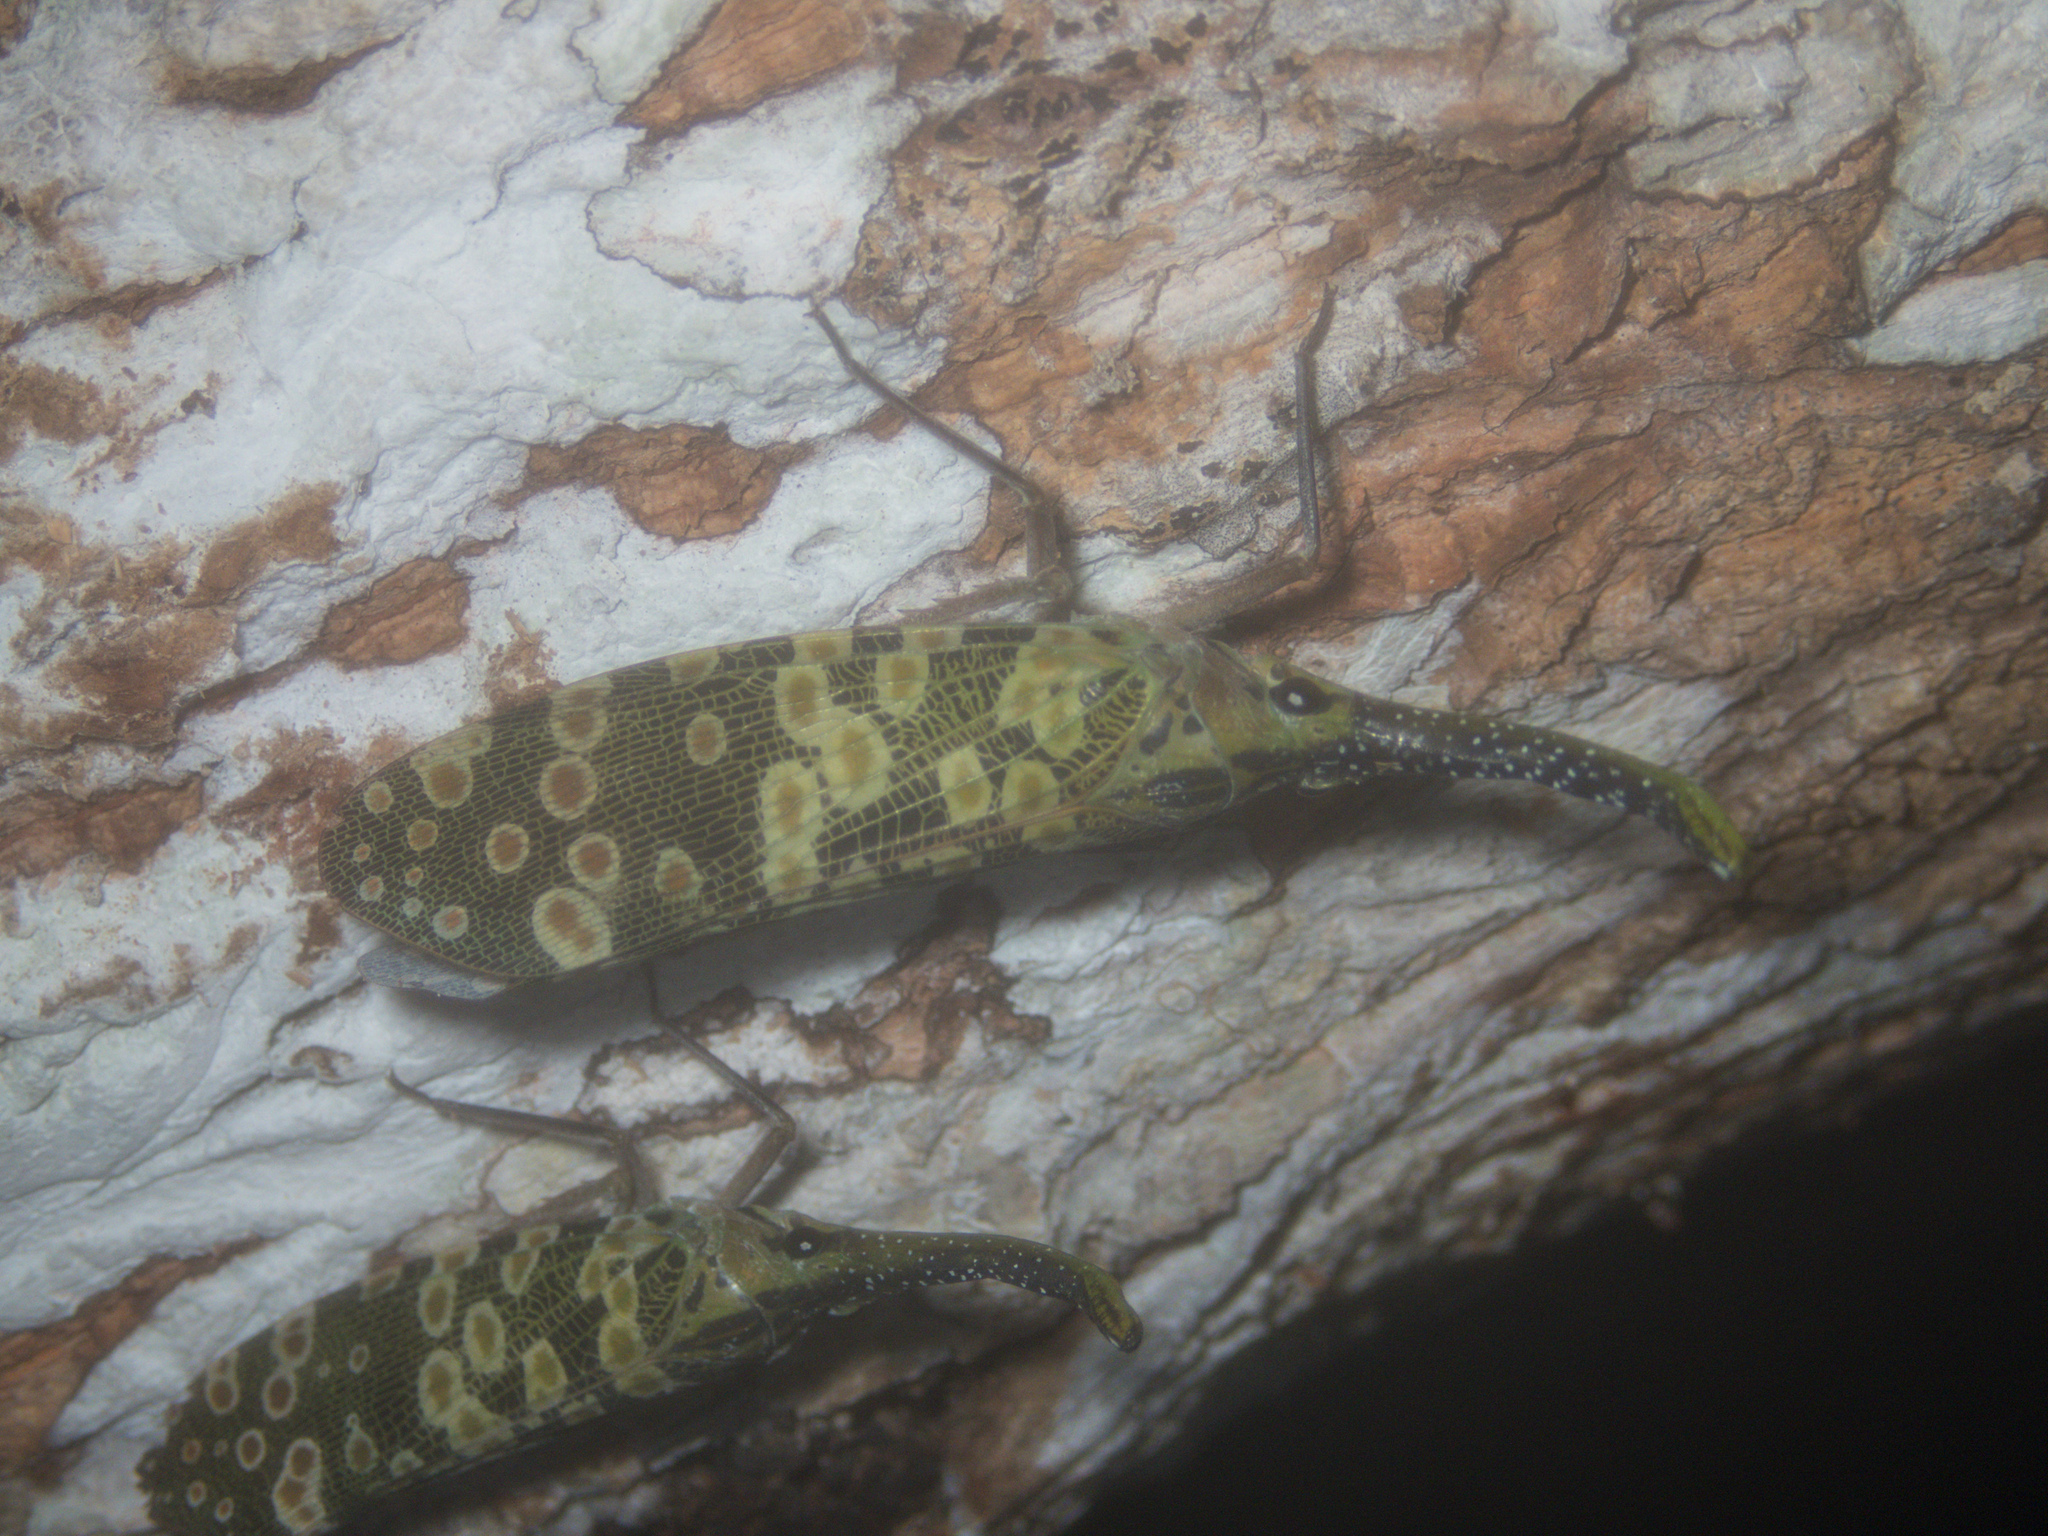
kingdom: Animalia
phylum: Arthropoda
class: Insecta
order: Hemiptera
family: Fulgoridae
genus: Pyrops
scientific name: Pyrops condorinus
